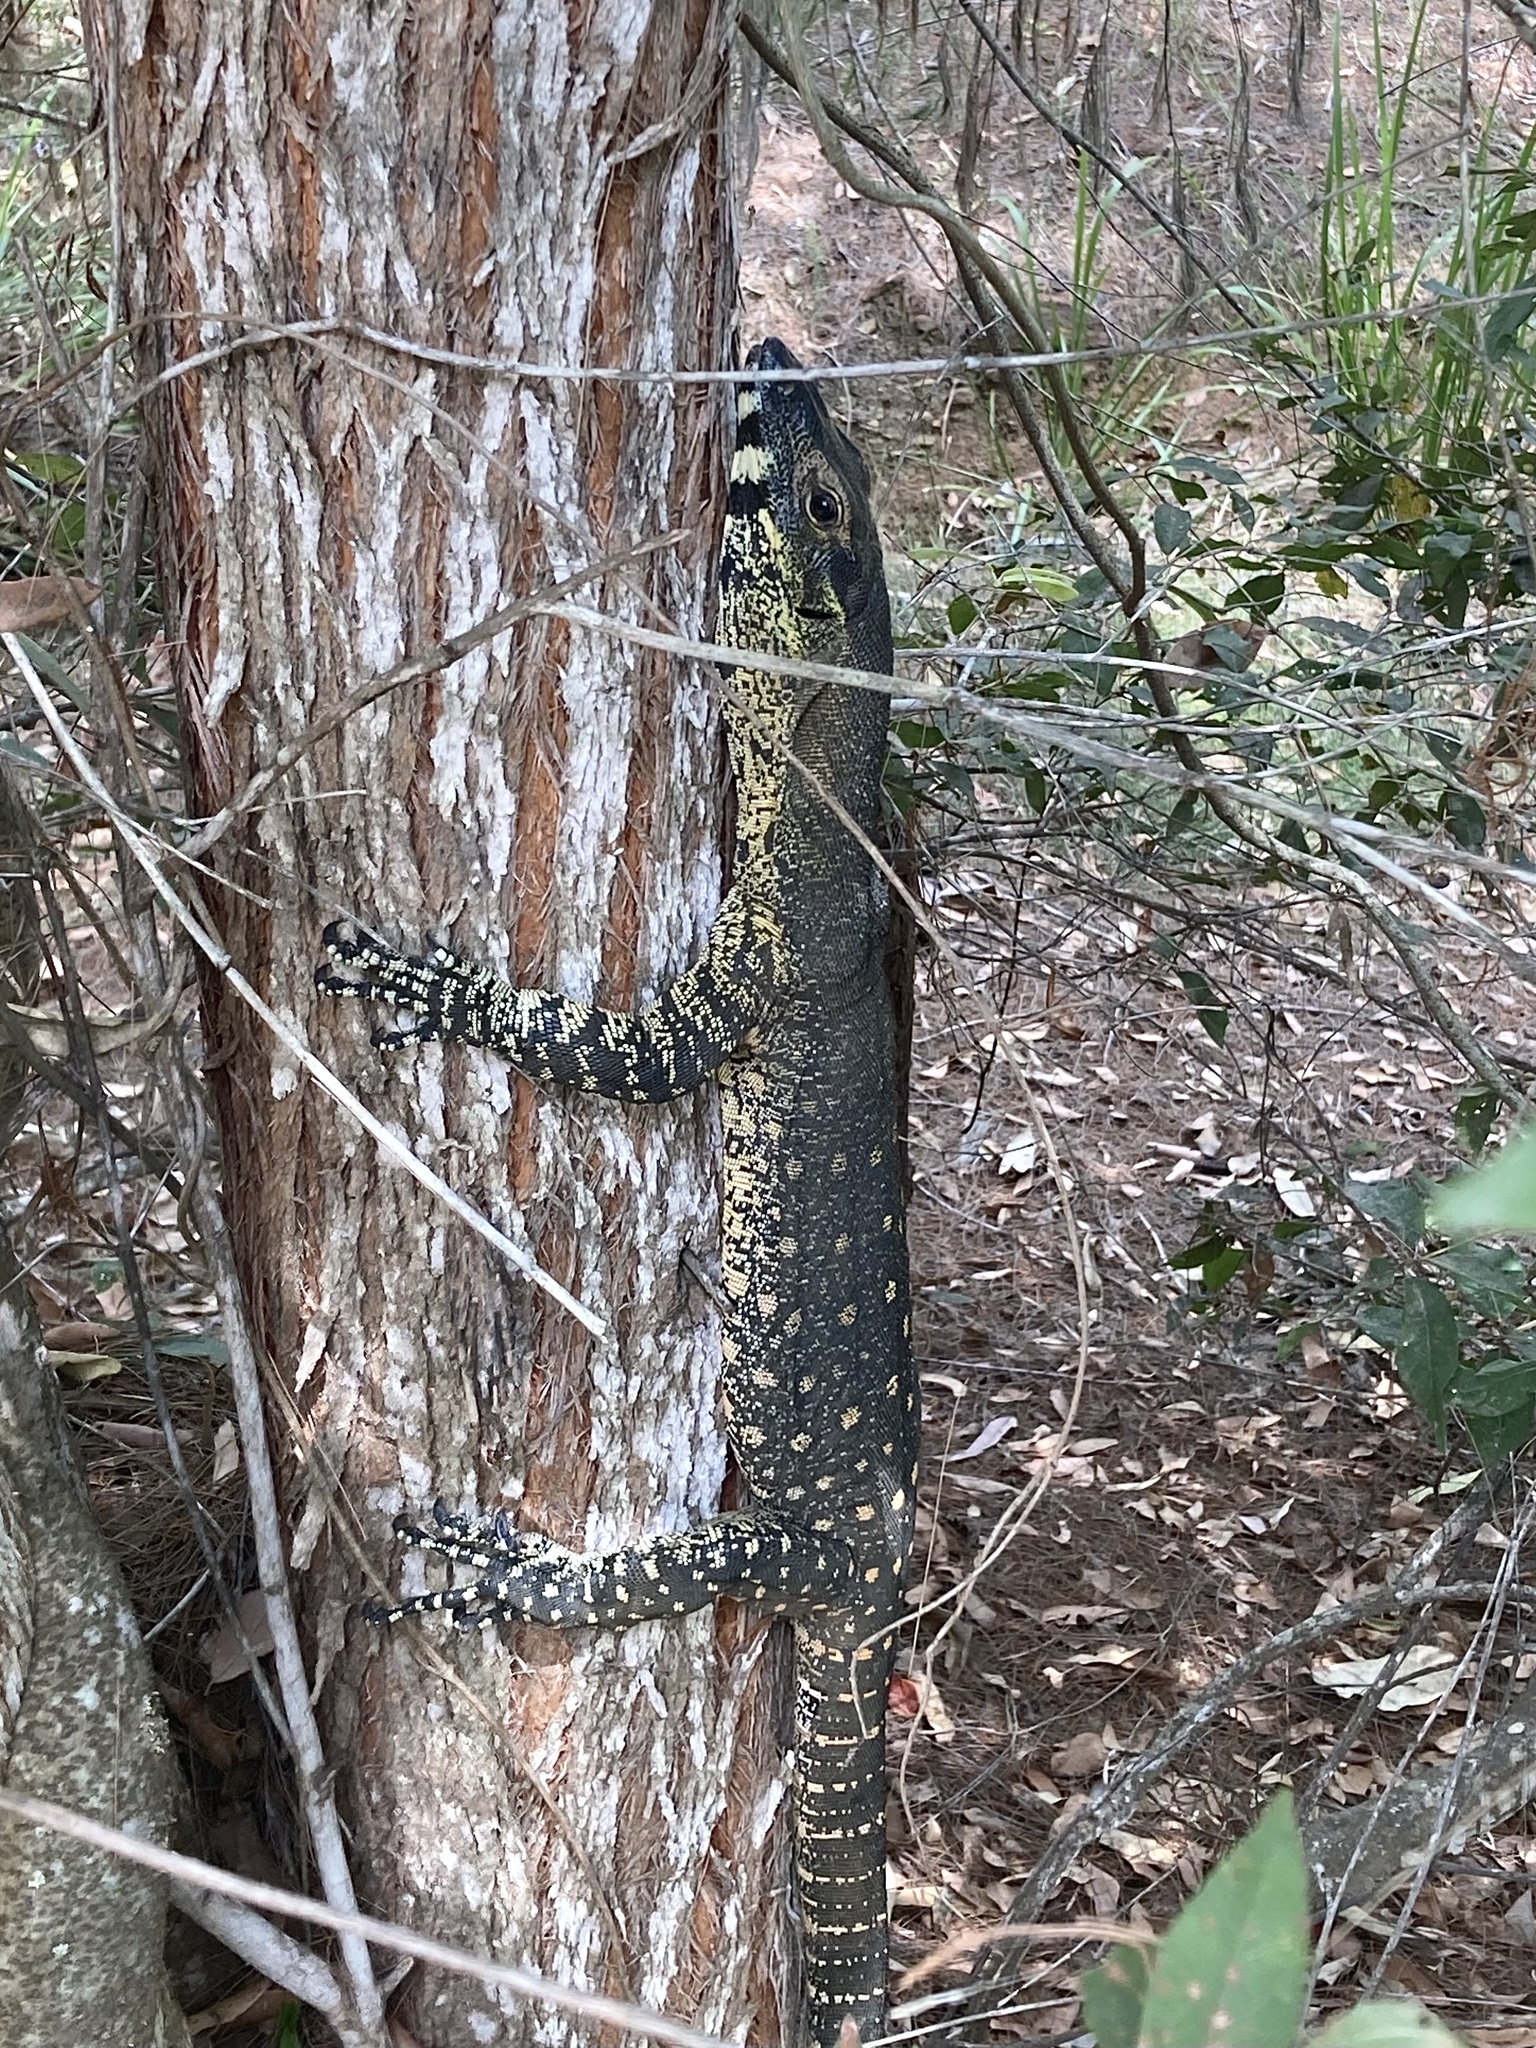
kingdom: Animalia
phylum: Chordata
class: Squamata
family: Varanidae
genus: Varanus
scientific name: Varanus varius
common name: Lace monitor
